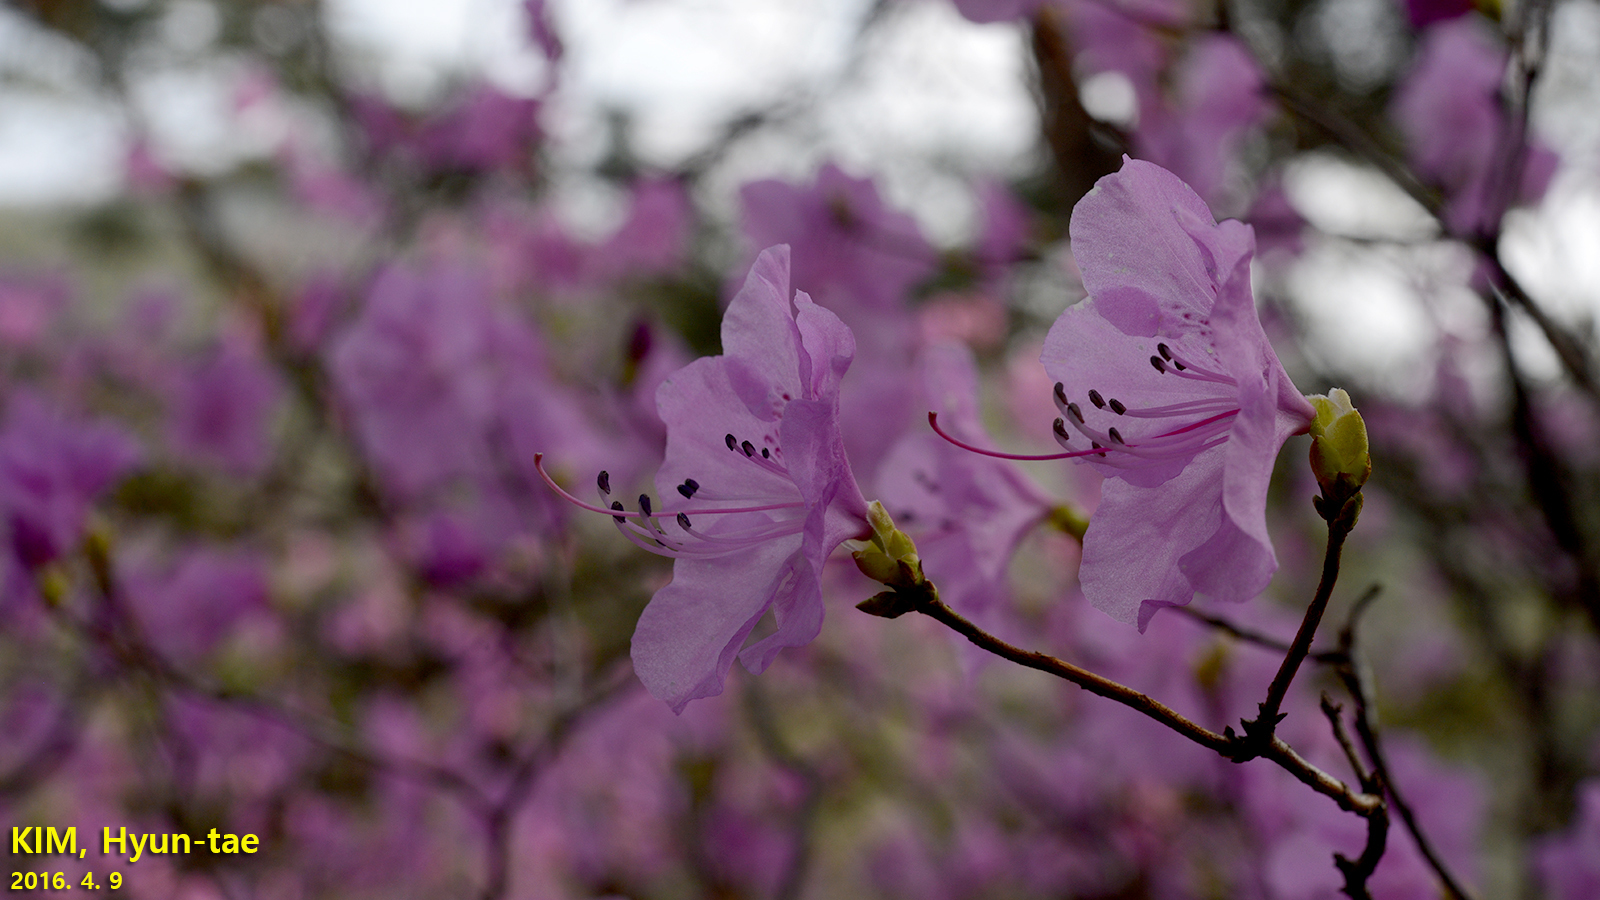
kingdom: Plantae
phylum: Tracheophyta
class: Magnoliopsida
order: Ericales
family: Ericaceae
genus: Rhododendron
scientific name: Rhododendron mucronulatum
